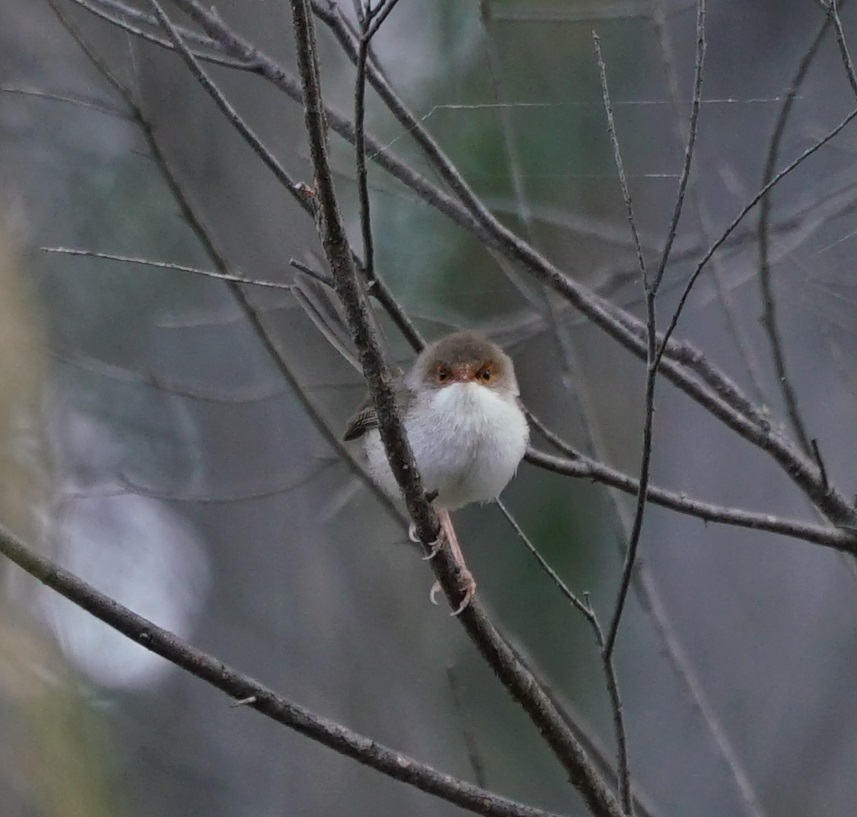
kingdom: Animalia
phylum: Chordata
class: Aves
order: Passeriformes
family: Maluridae
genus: Malurus
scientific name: Malurus cyaneus
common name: Superb fairywren
